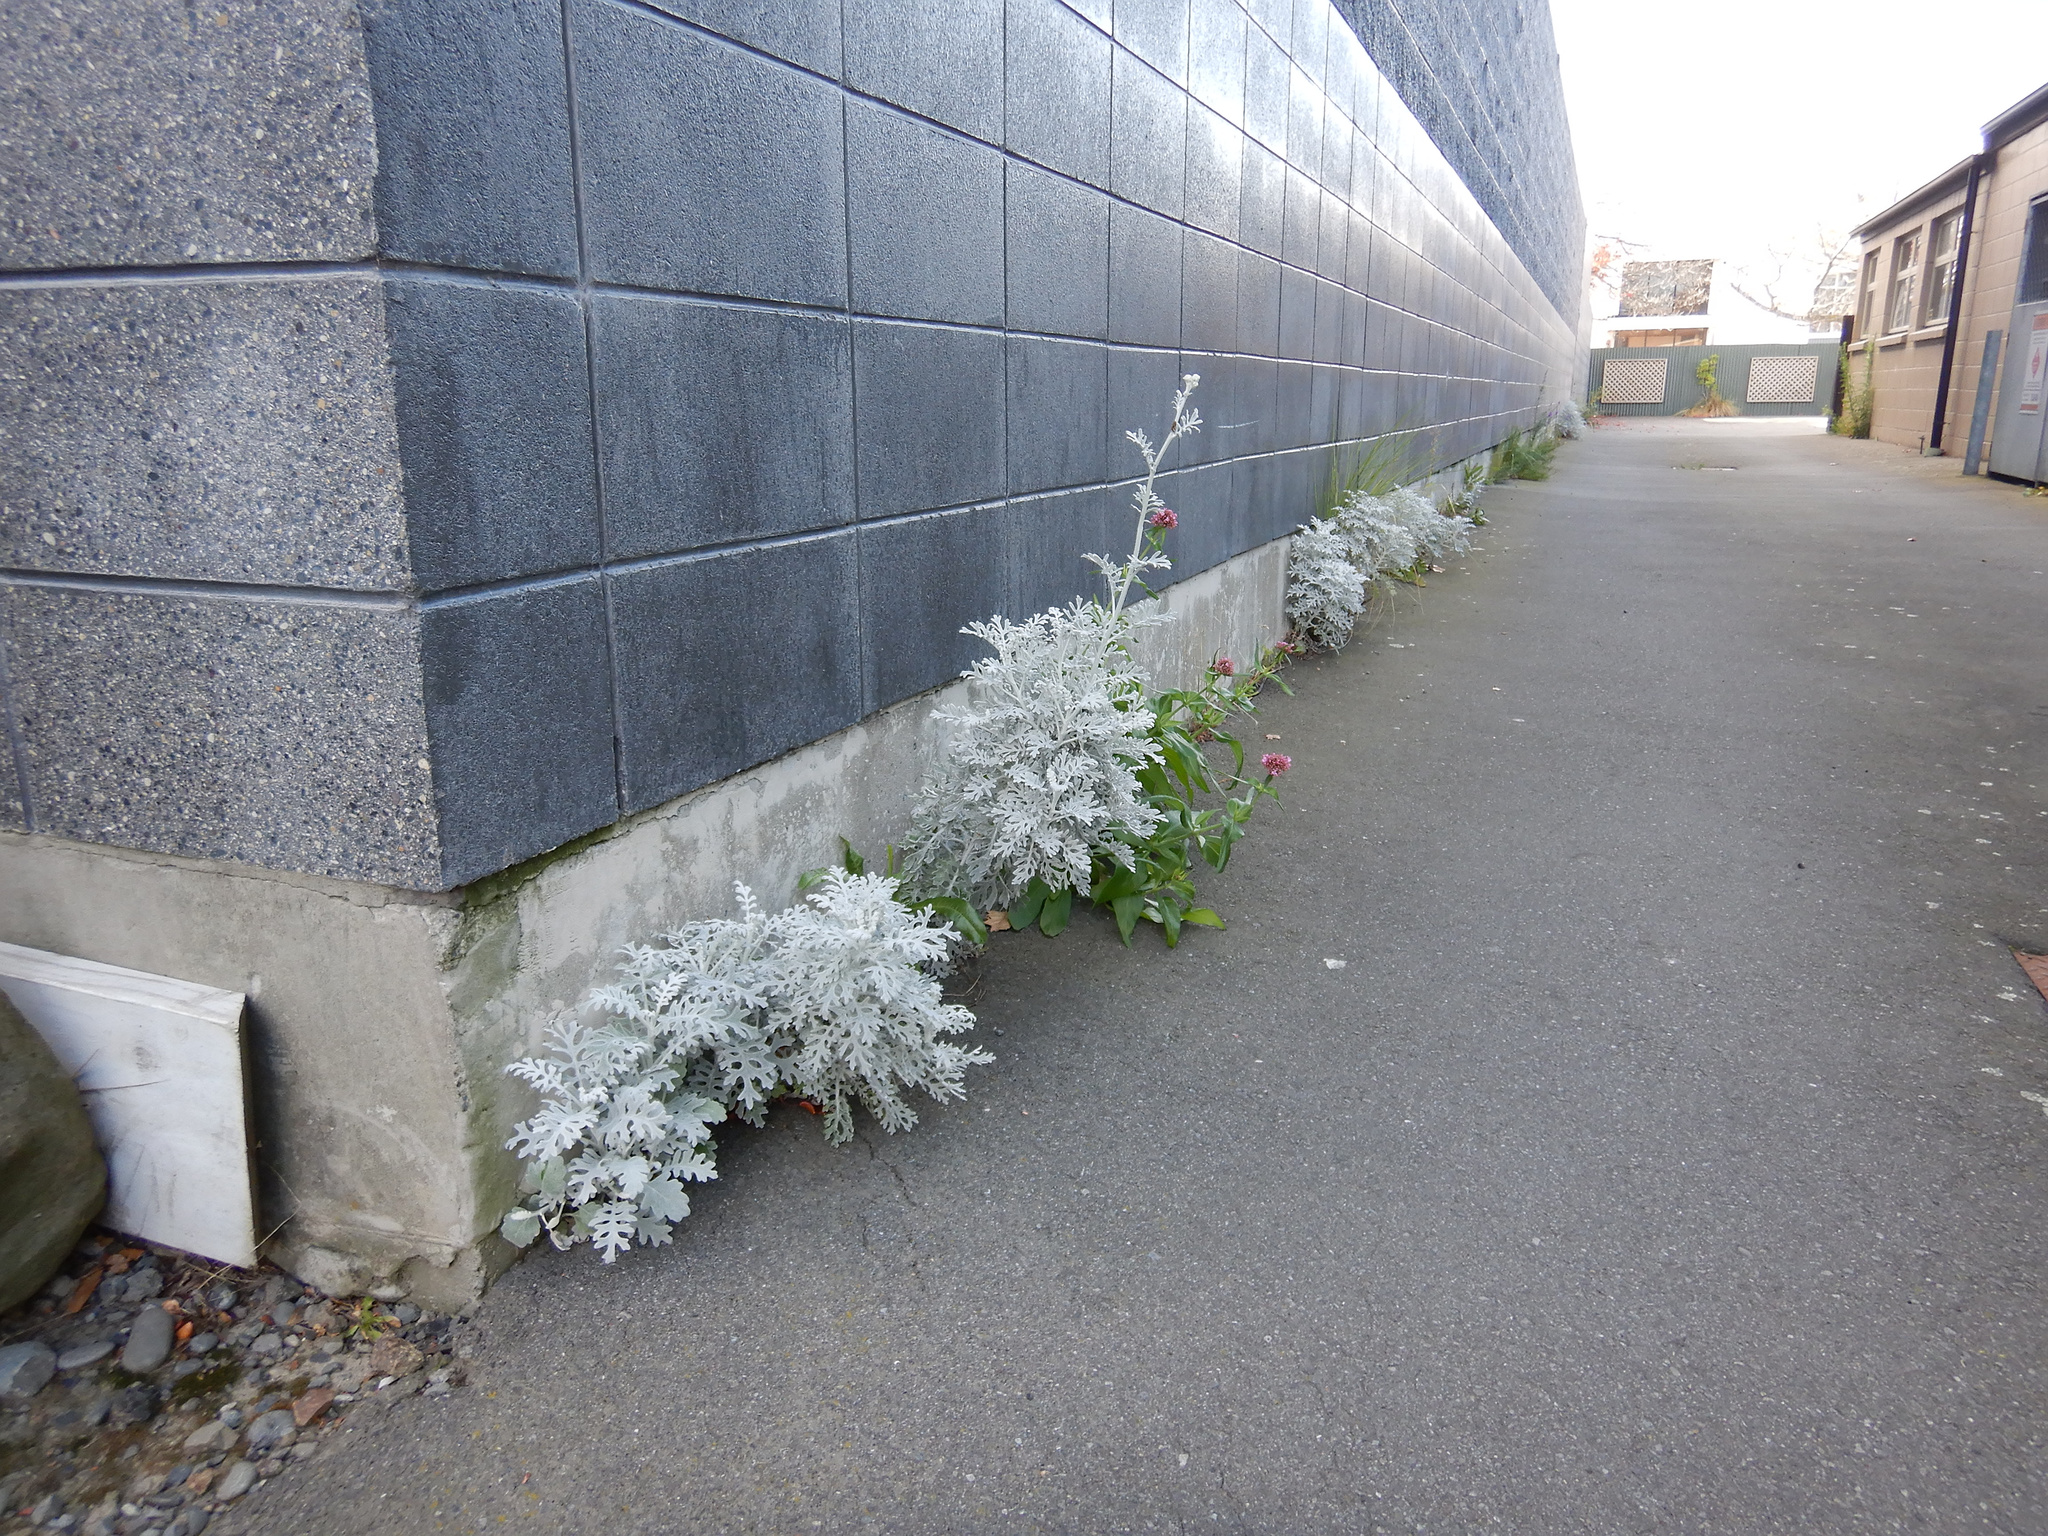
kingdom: Plantae
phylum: Tracheophyta
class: Magnoliopsida
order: Asterales
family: Asteraceae
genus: Jacobaea
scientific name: Jacobaea maritima
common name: Silver ragwort
